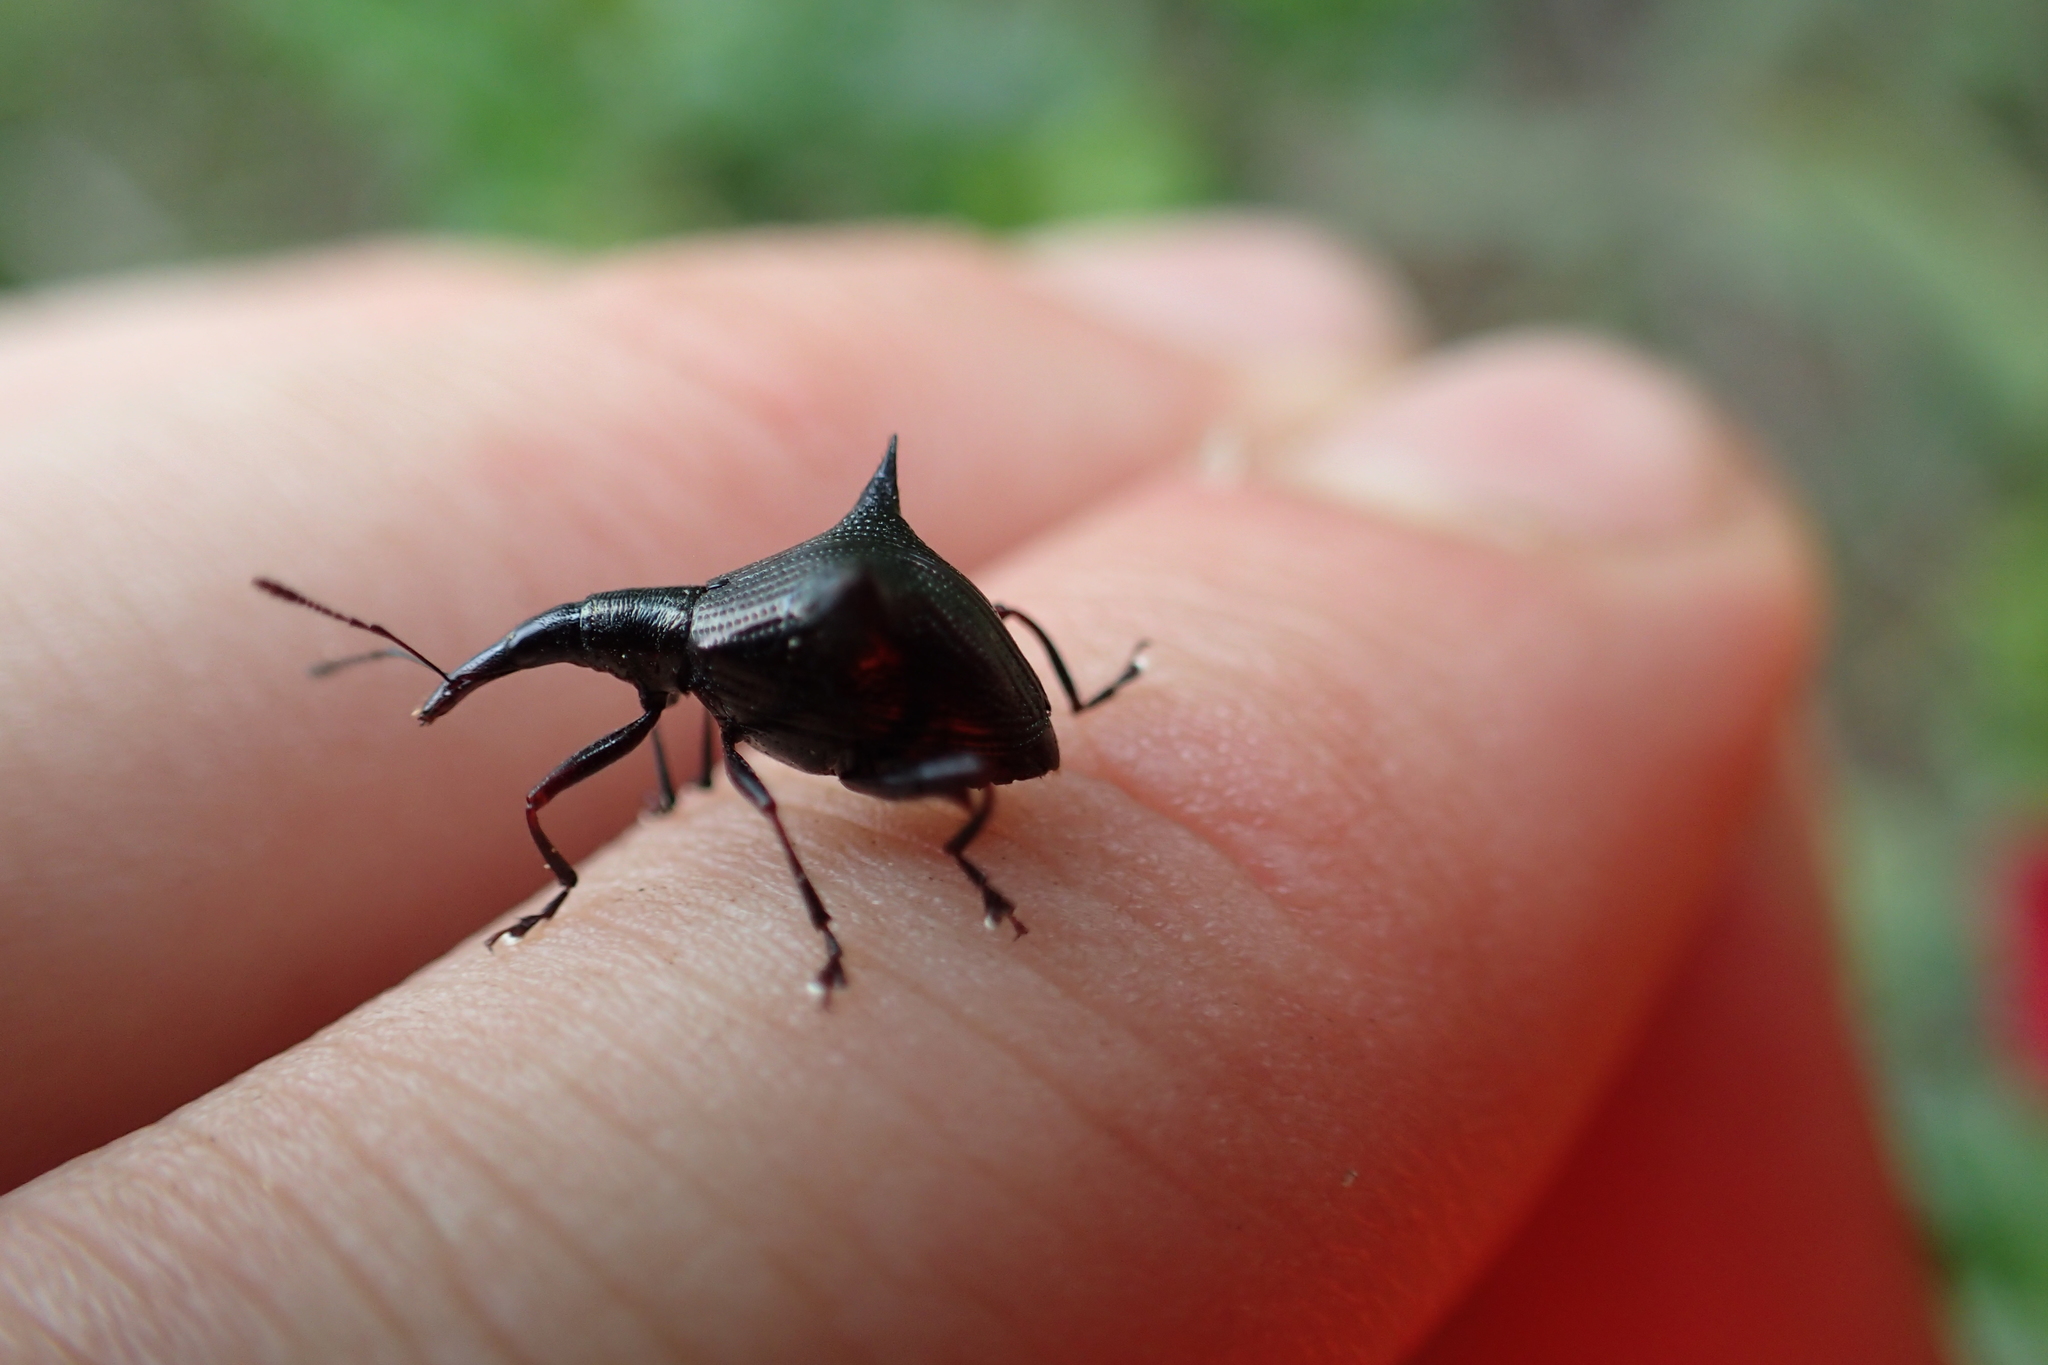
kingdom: Animalia
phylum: Arthropoda
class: Insecta
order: Coleoptera
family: Curculionidae
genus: Nyxetes
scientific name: Nyxetes bidens
